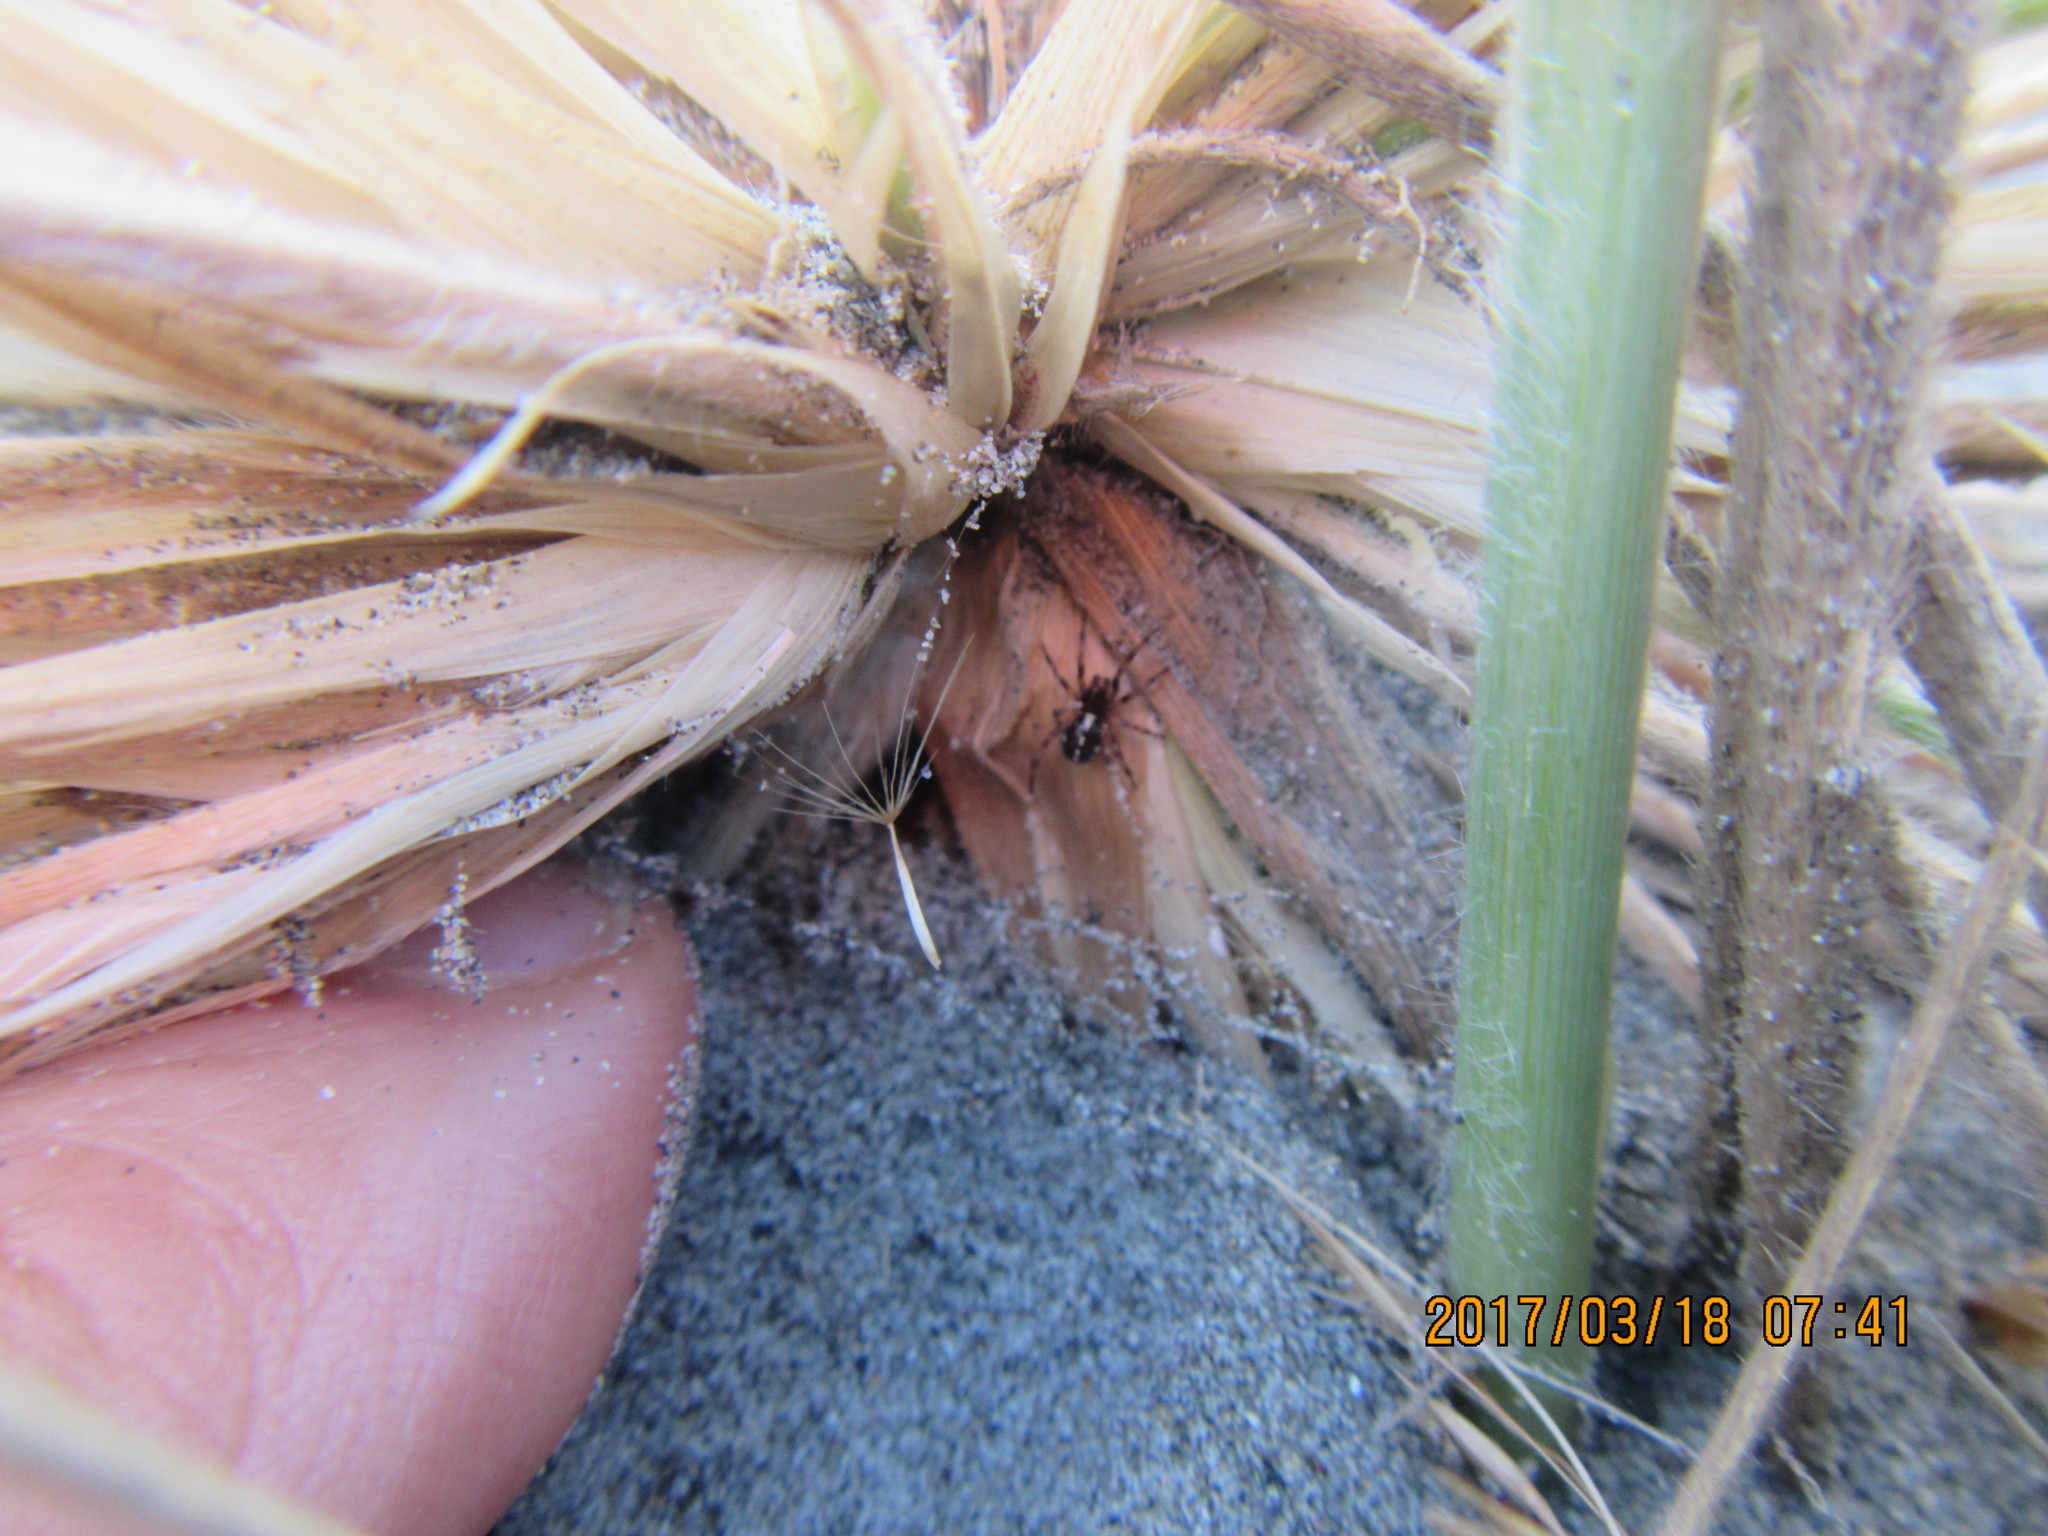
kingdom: Animalia
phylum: Arthropoda
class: Arachnida
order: Araneae
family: Theridiidae
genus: Steatoda
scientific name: Steatoda lepida
